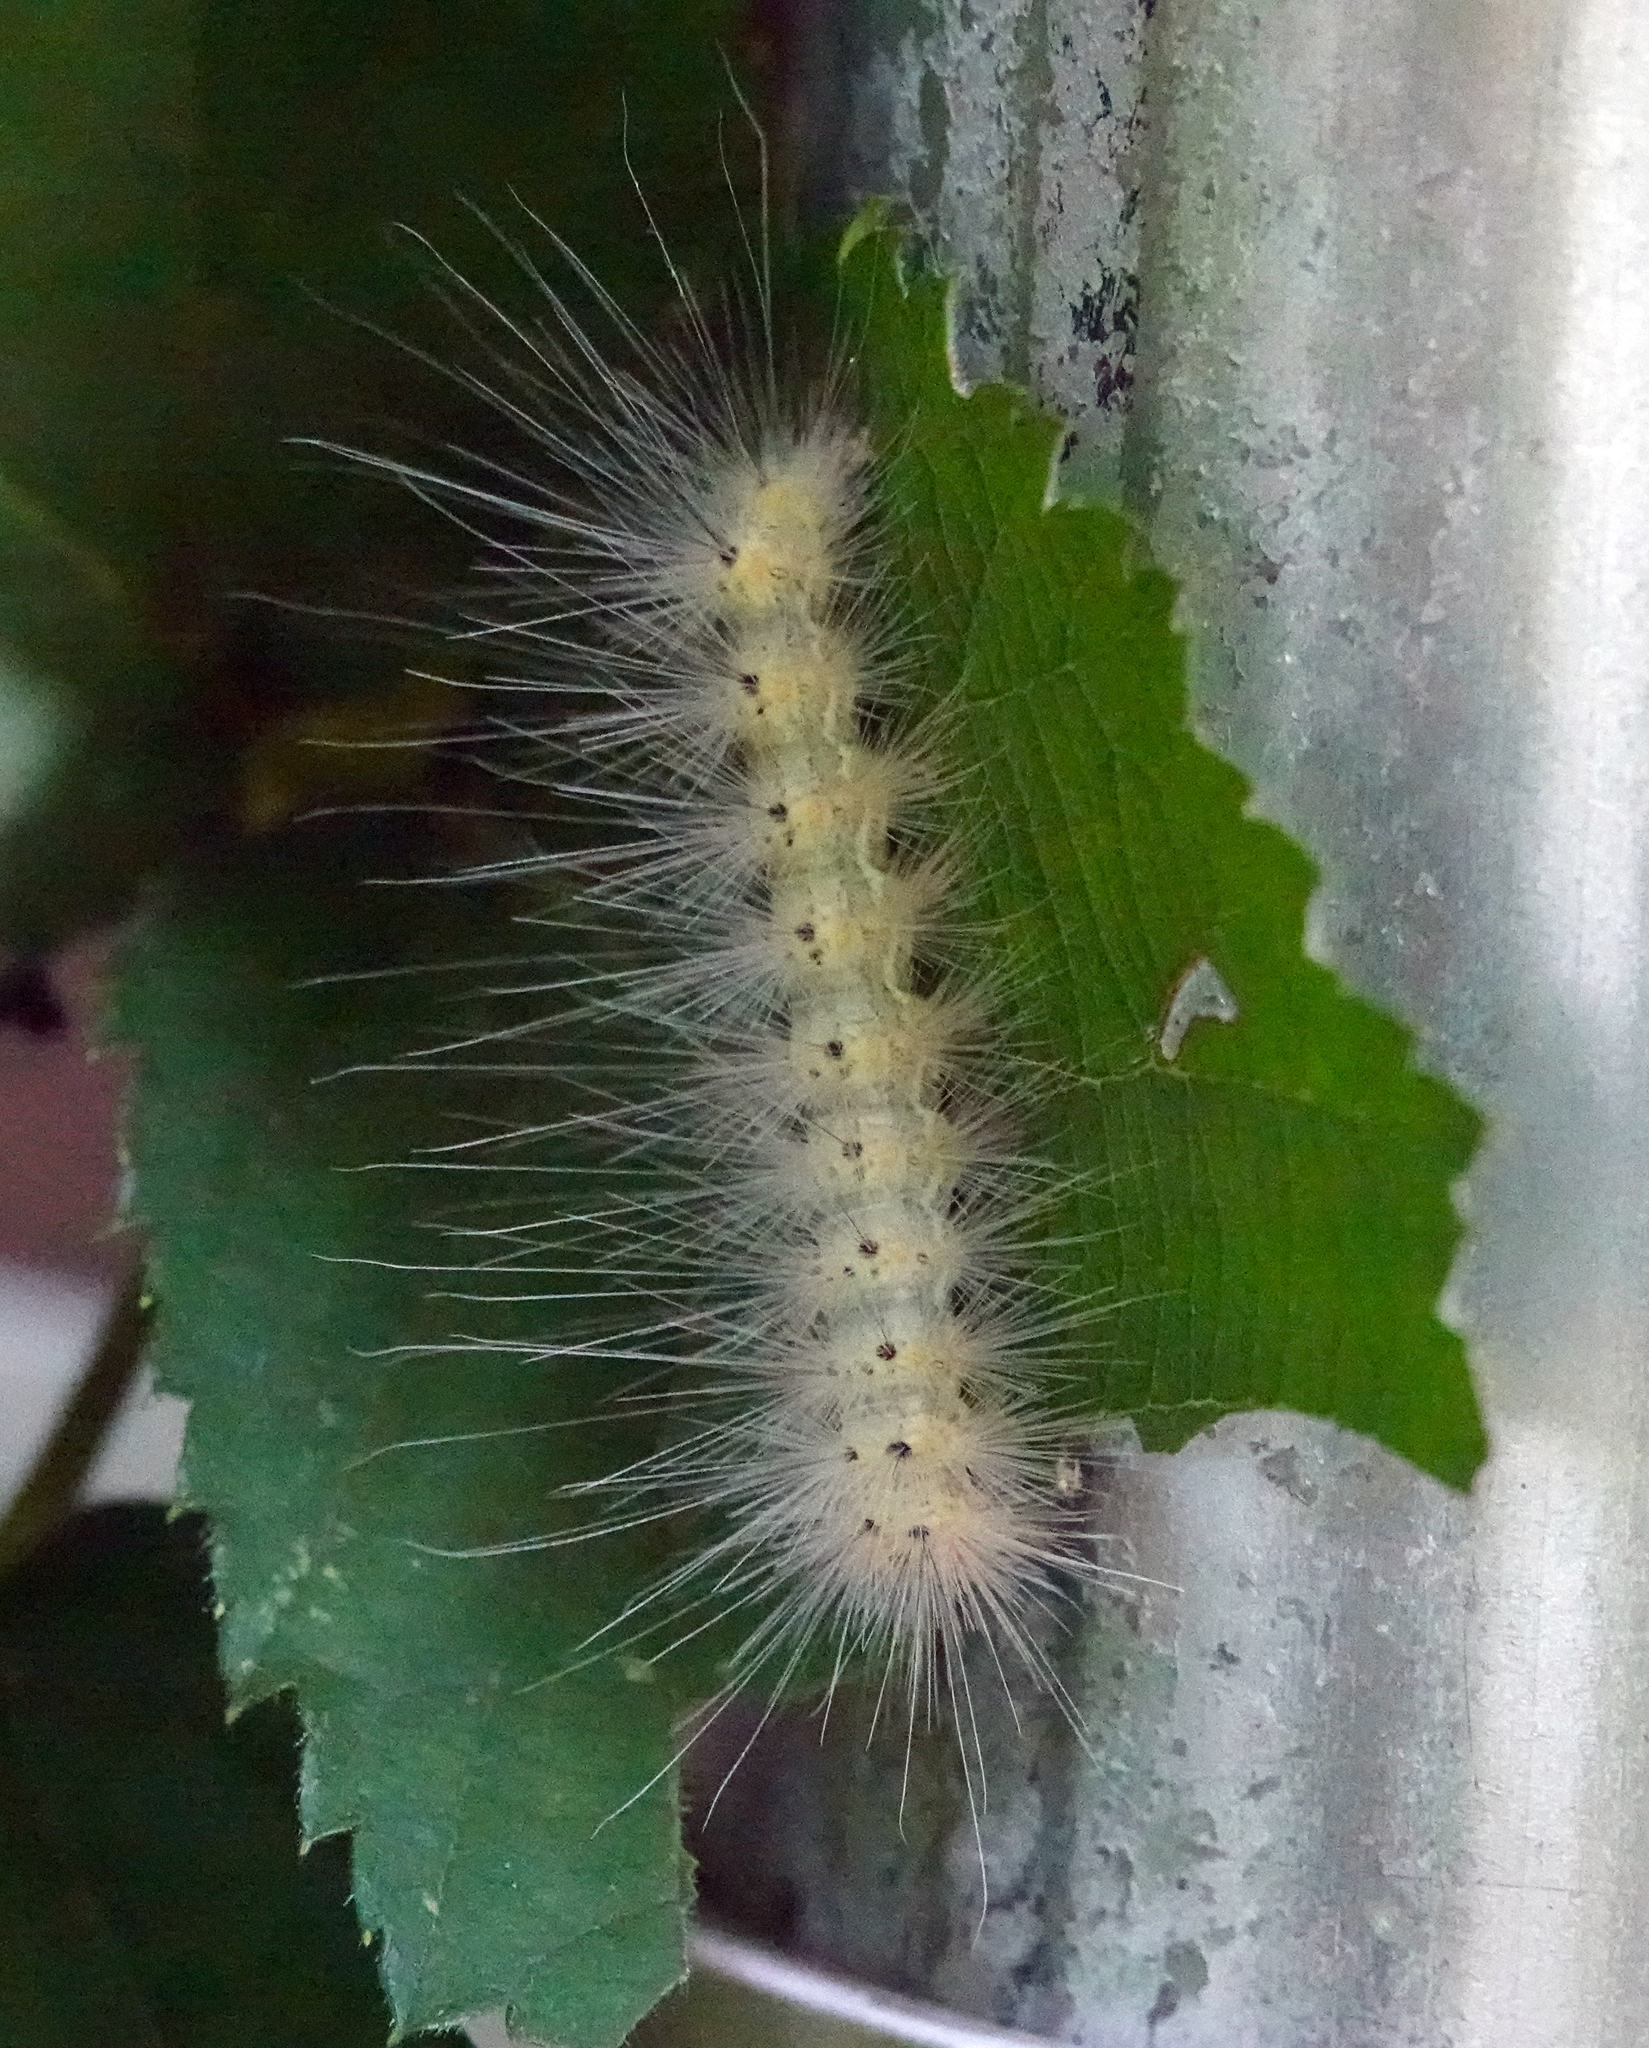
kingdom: Animalia
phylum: Arthropoda
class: Insecta
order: Lepidoptera
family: Erebidae
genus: Spilosoma
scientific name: Spilosoma virginica
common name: Virginia tiger moth
